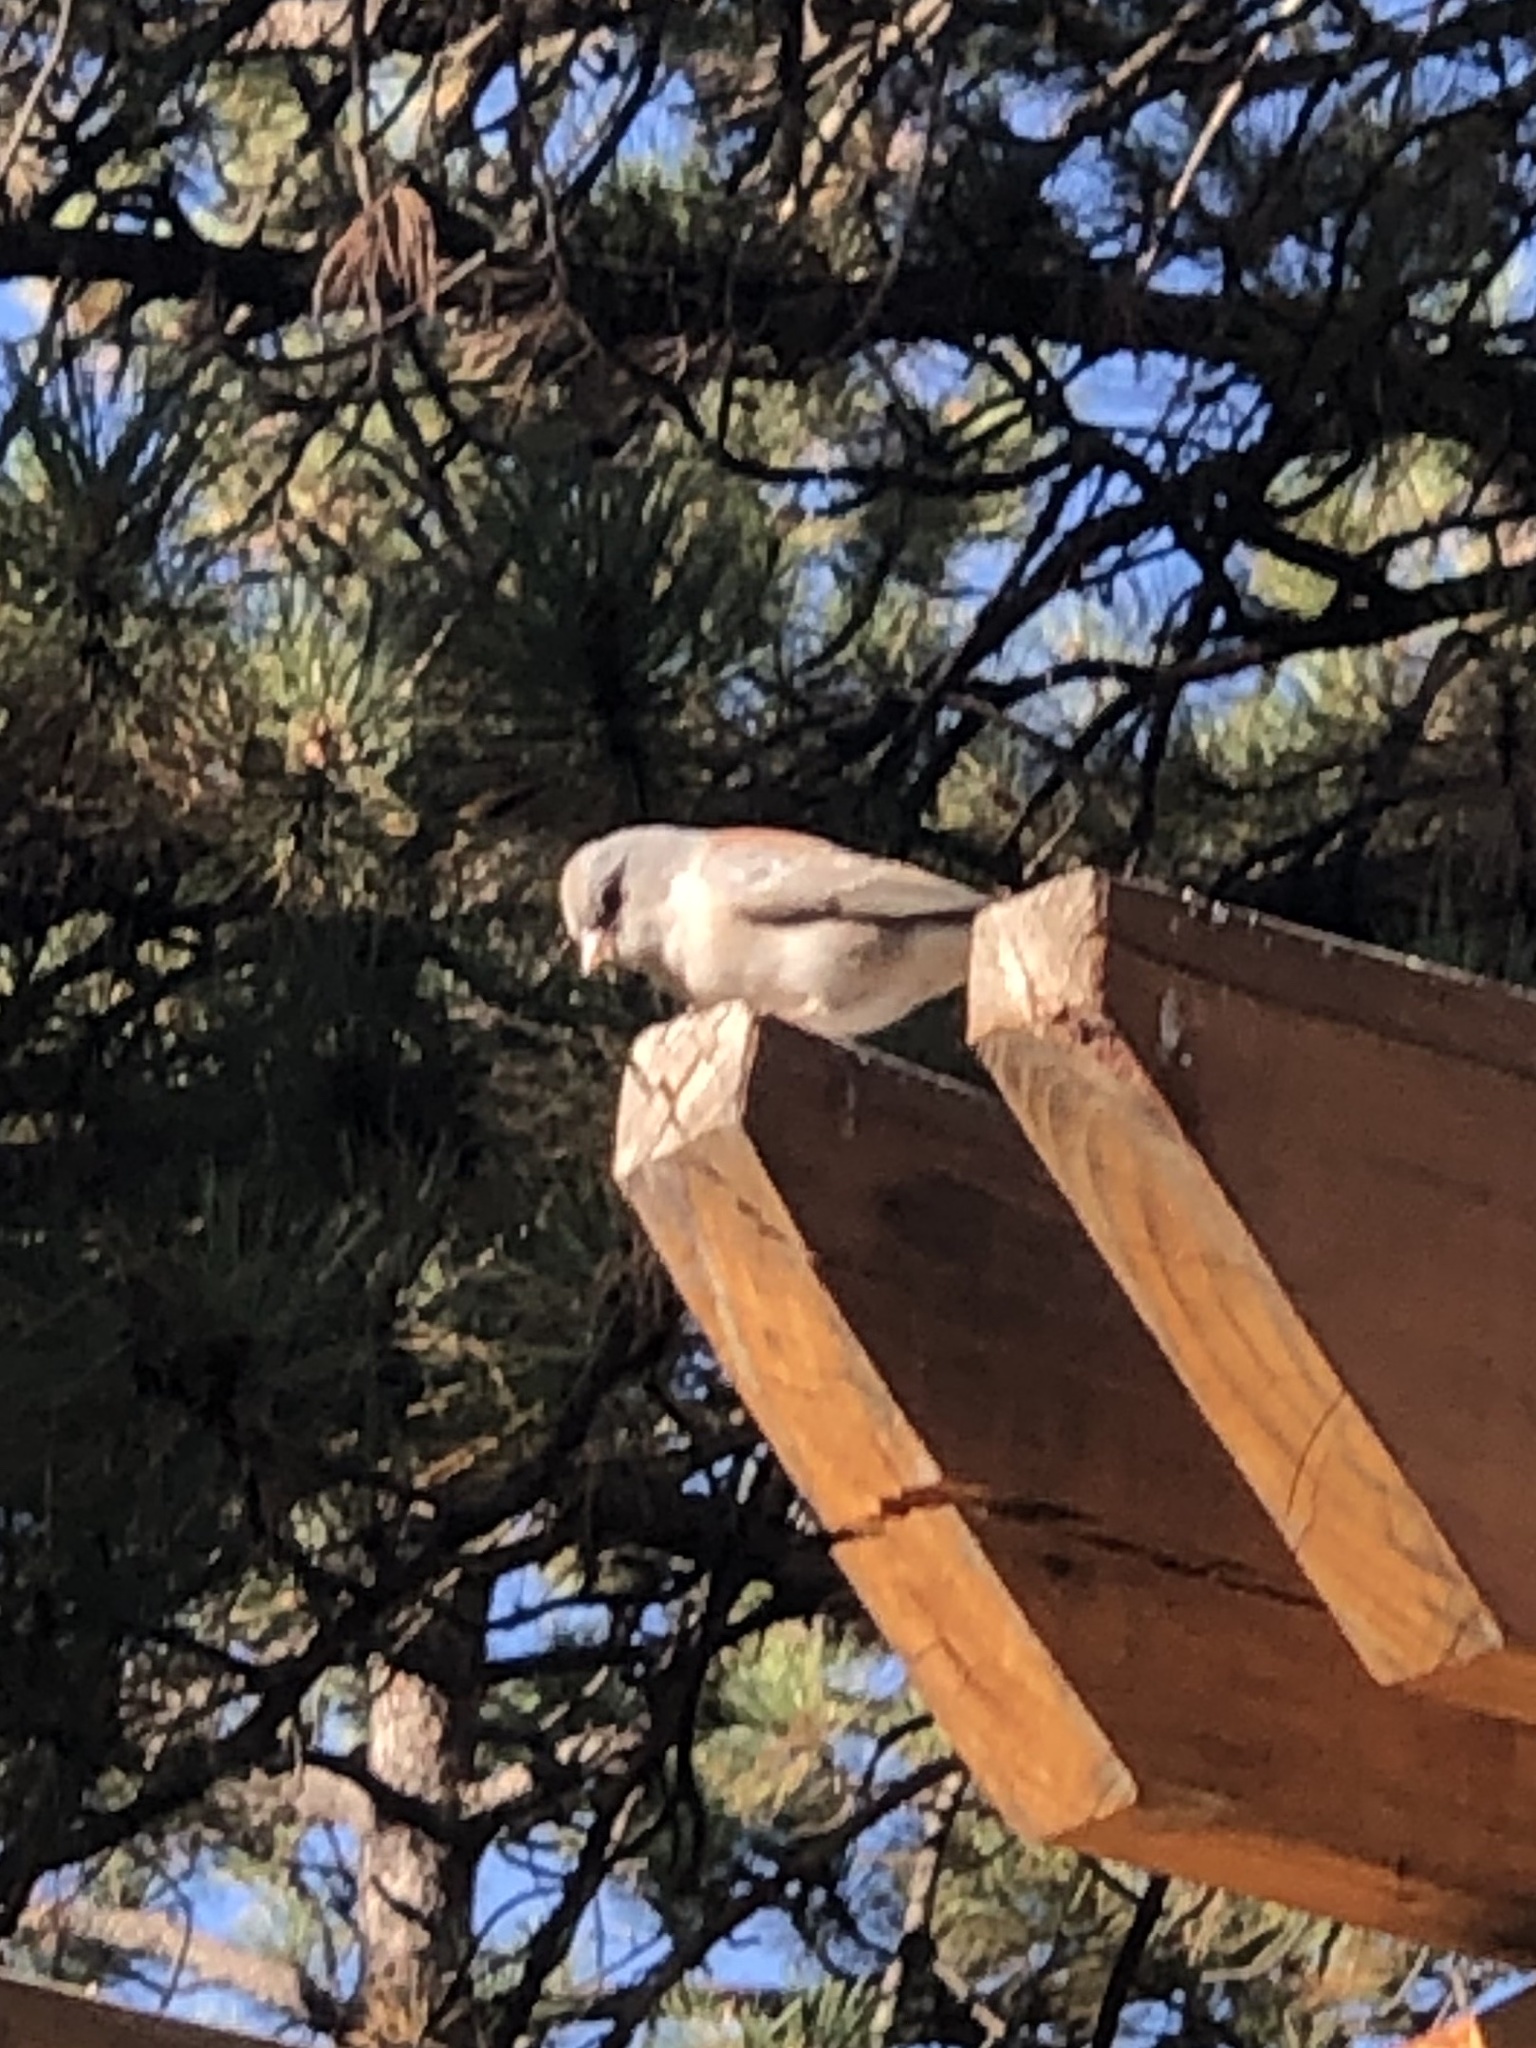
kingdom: Animalia
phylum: Chordata
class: Aves
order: Passeriformes
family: Passerellidae
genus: Junco
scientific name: Junco hyemalis
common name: Dark-eyed junco
